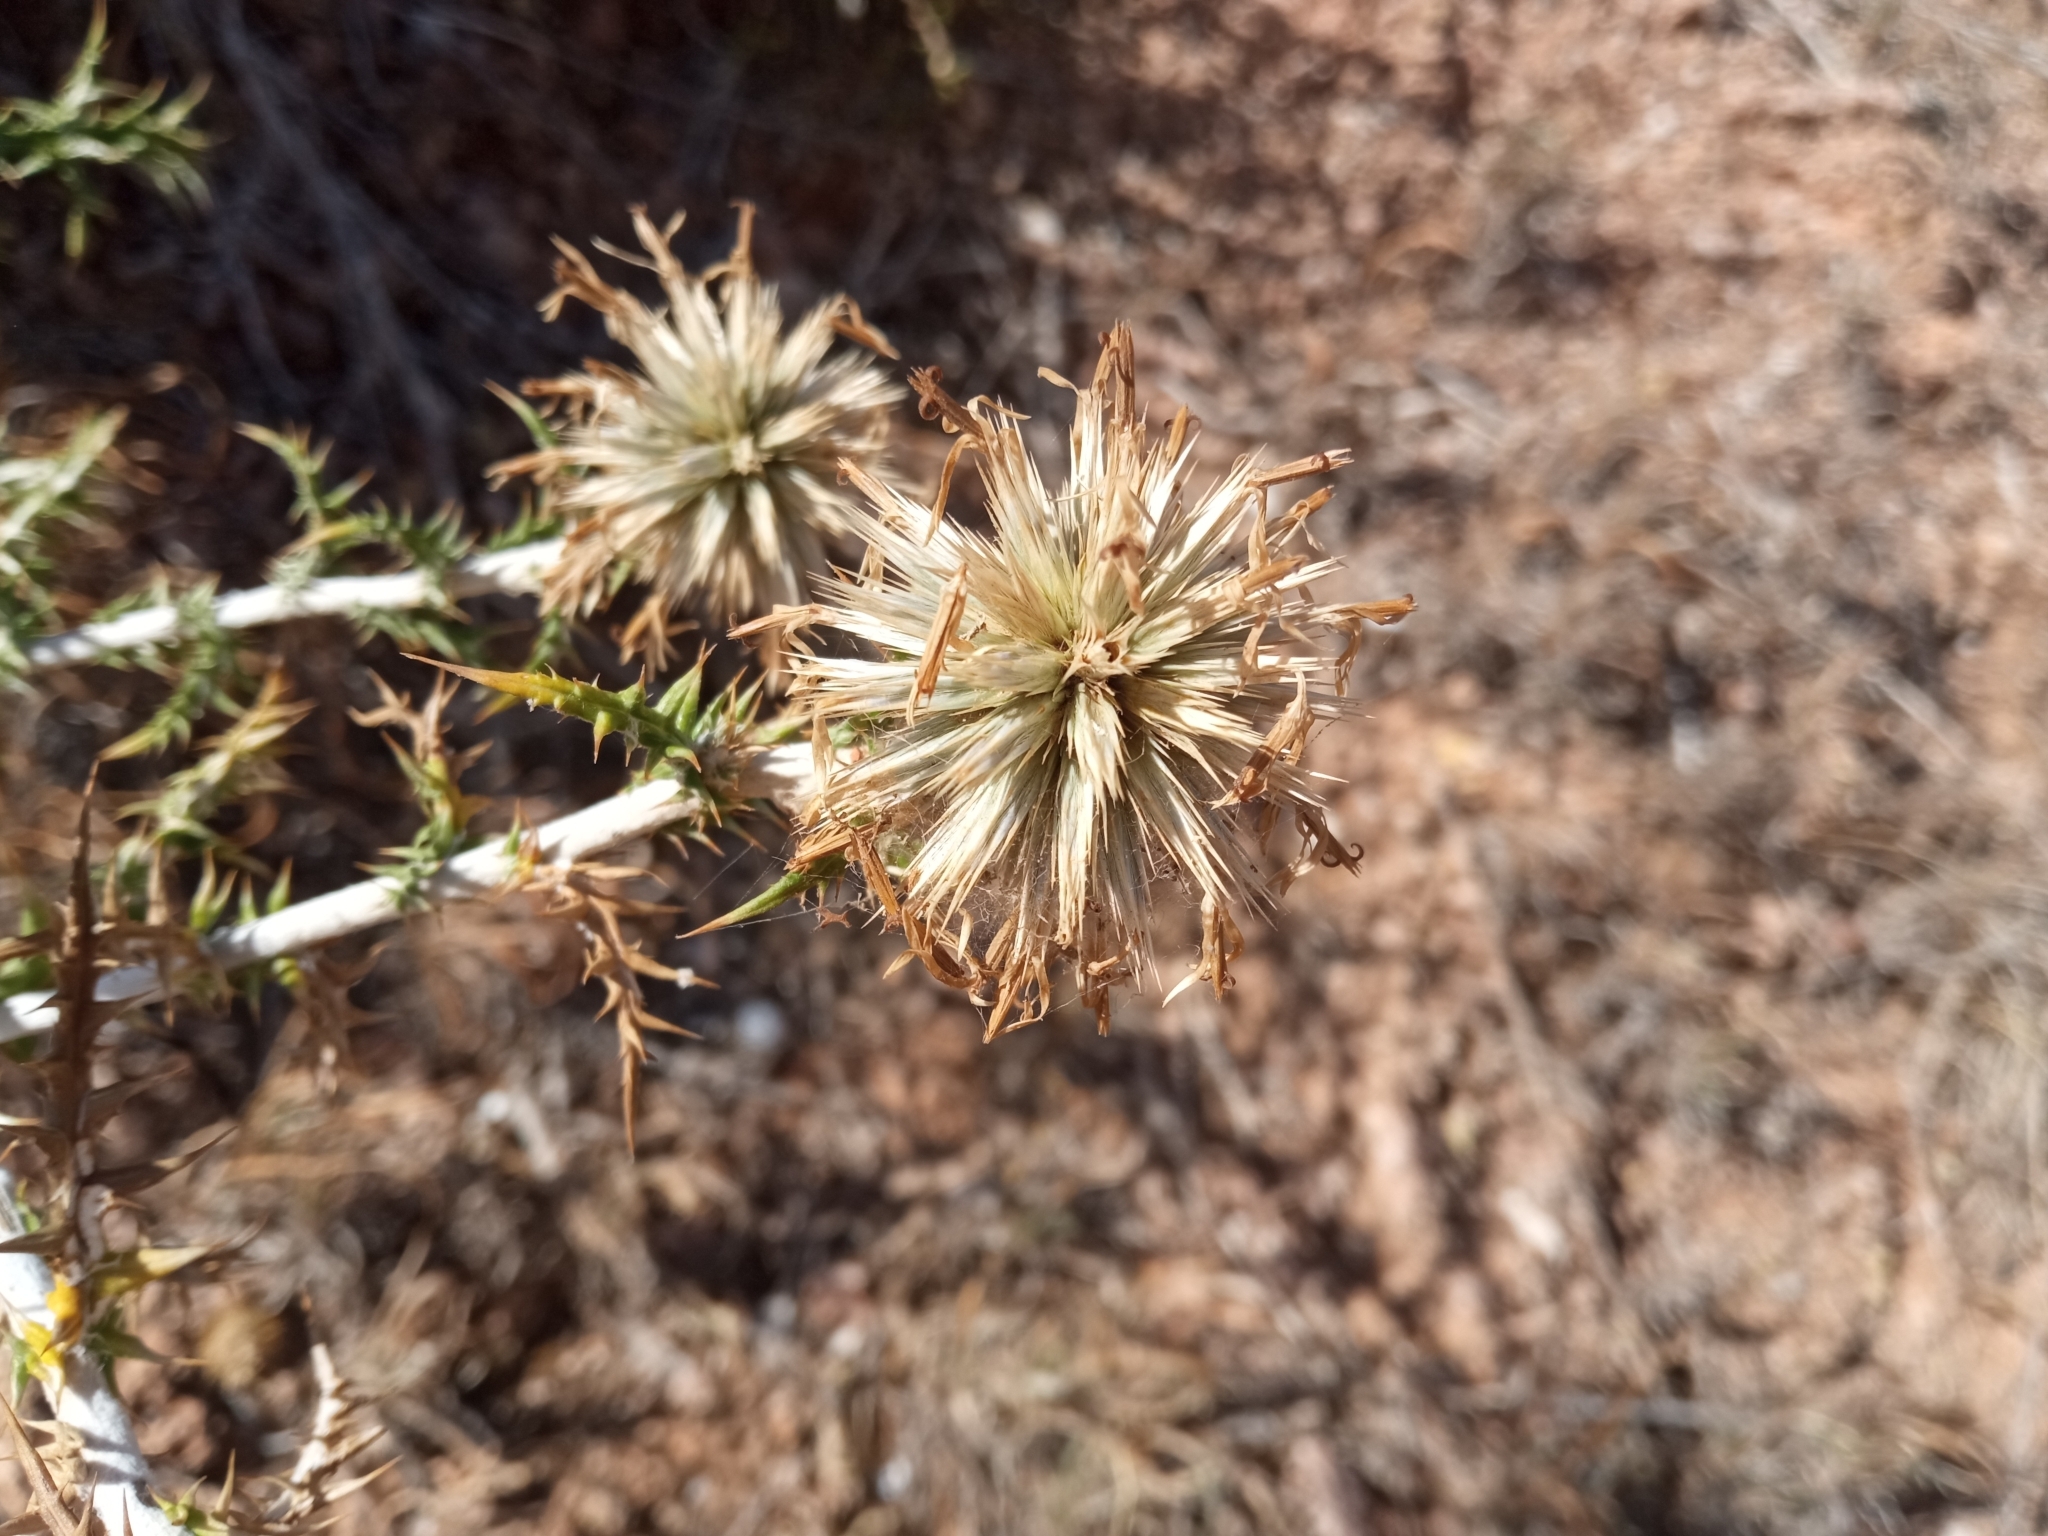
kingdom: Plantae
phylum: Tracheophyta
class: Magnoliopsida
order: Asterales
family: Asteraceae
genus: Echinops
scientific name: Echinops ritro
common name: Globe thistle
